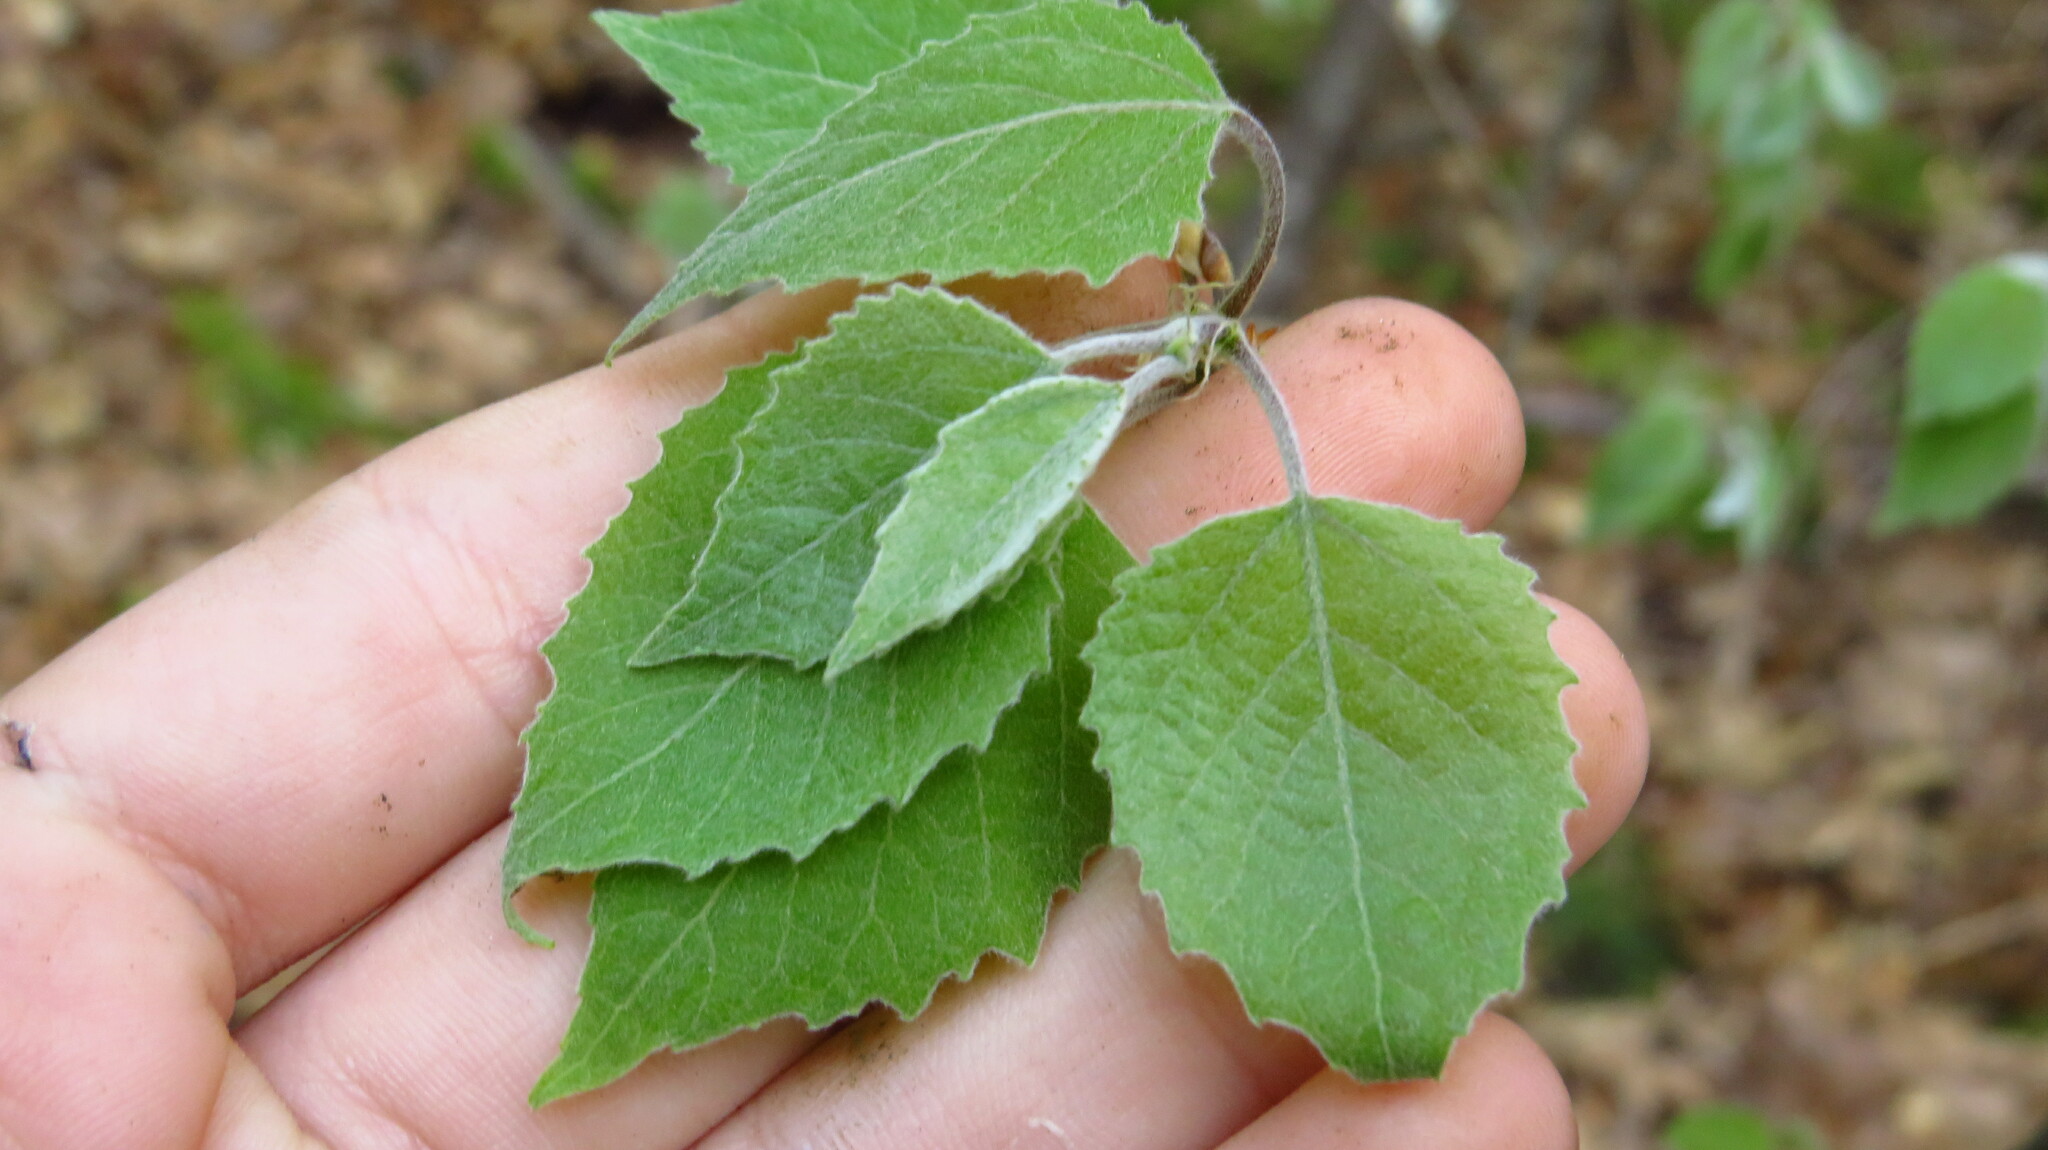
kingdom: Plantae
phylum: Tracheophyta
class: Magnoliopsida
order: Malpighiales
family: Salicaceae
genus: Populus
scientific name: Populus grandidentata
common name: Bigtooth aspen
